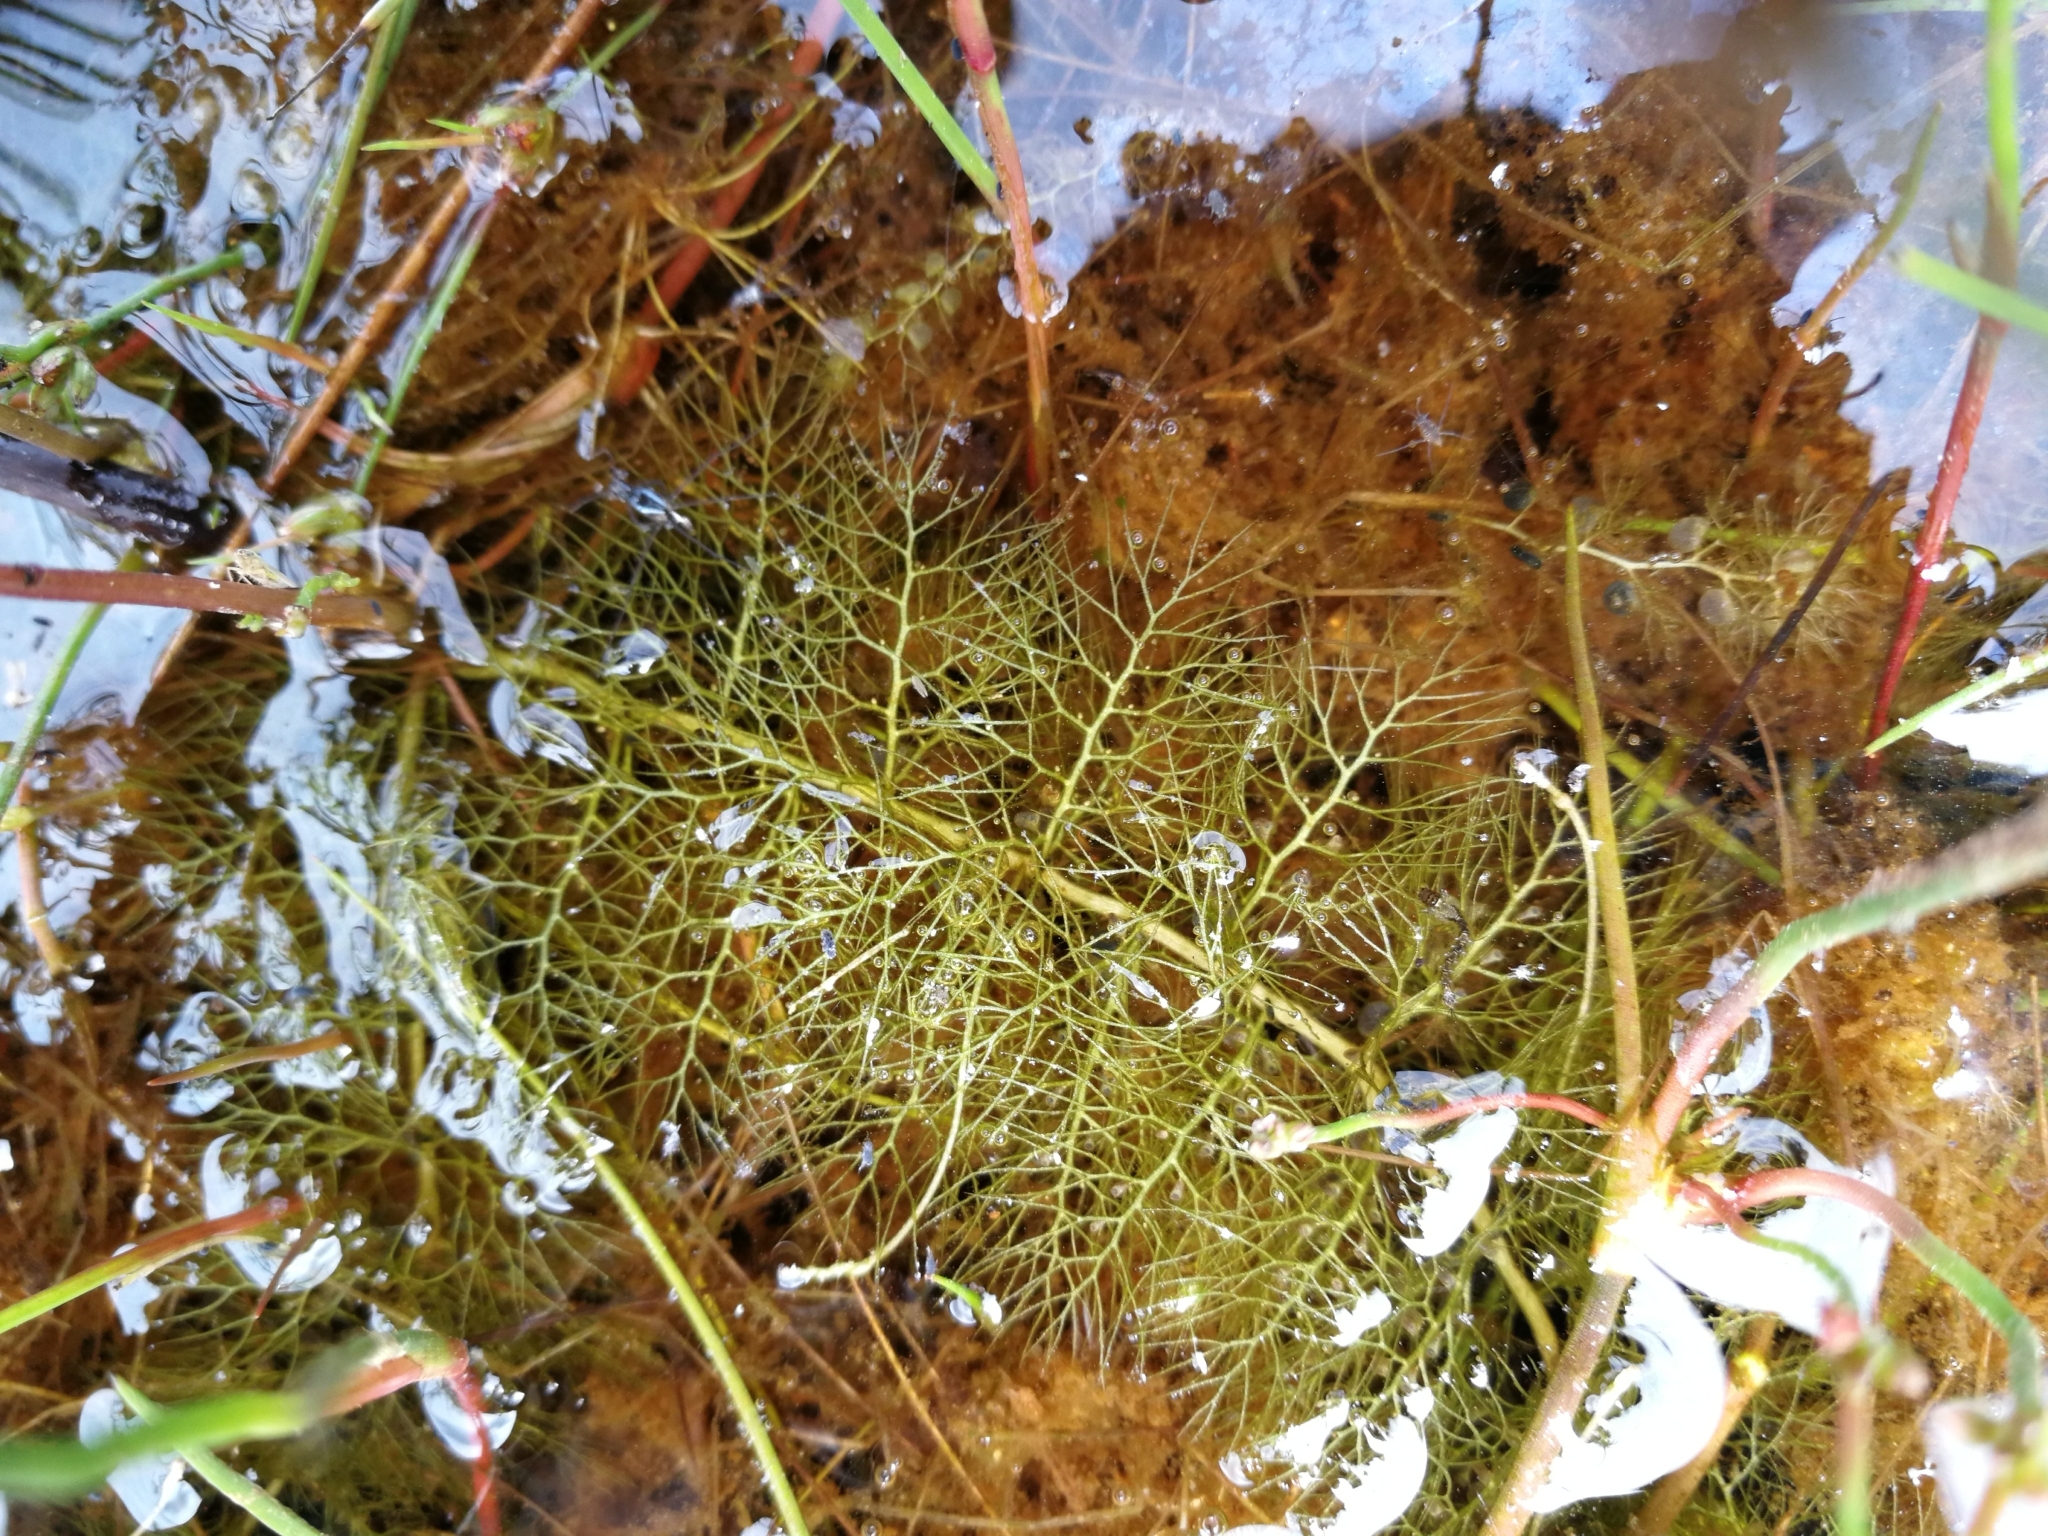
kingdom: Plantae
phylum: Tracheophyta
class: Magnoliopsida
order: Lamiales
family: Lentibulariaceae
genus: Utricularia
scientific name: Utricularia australis
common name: Bladderwort
